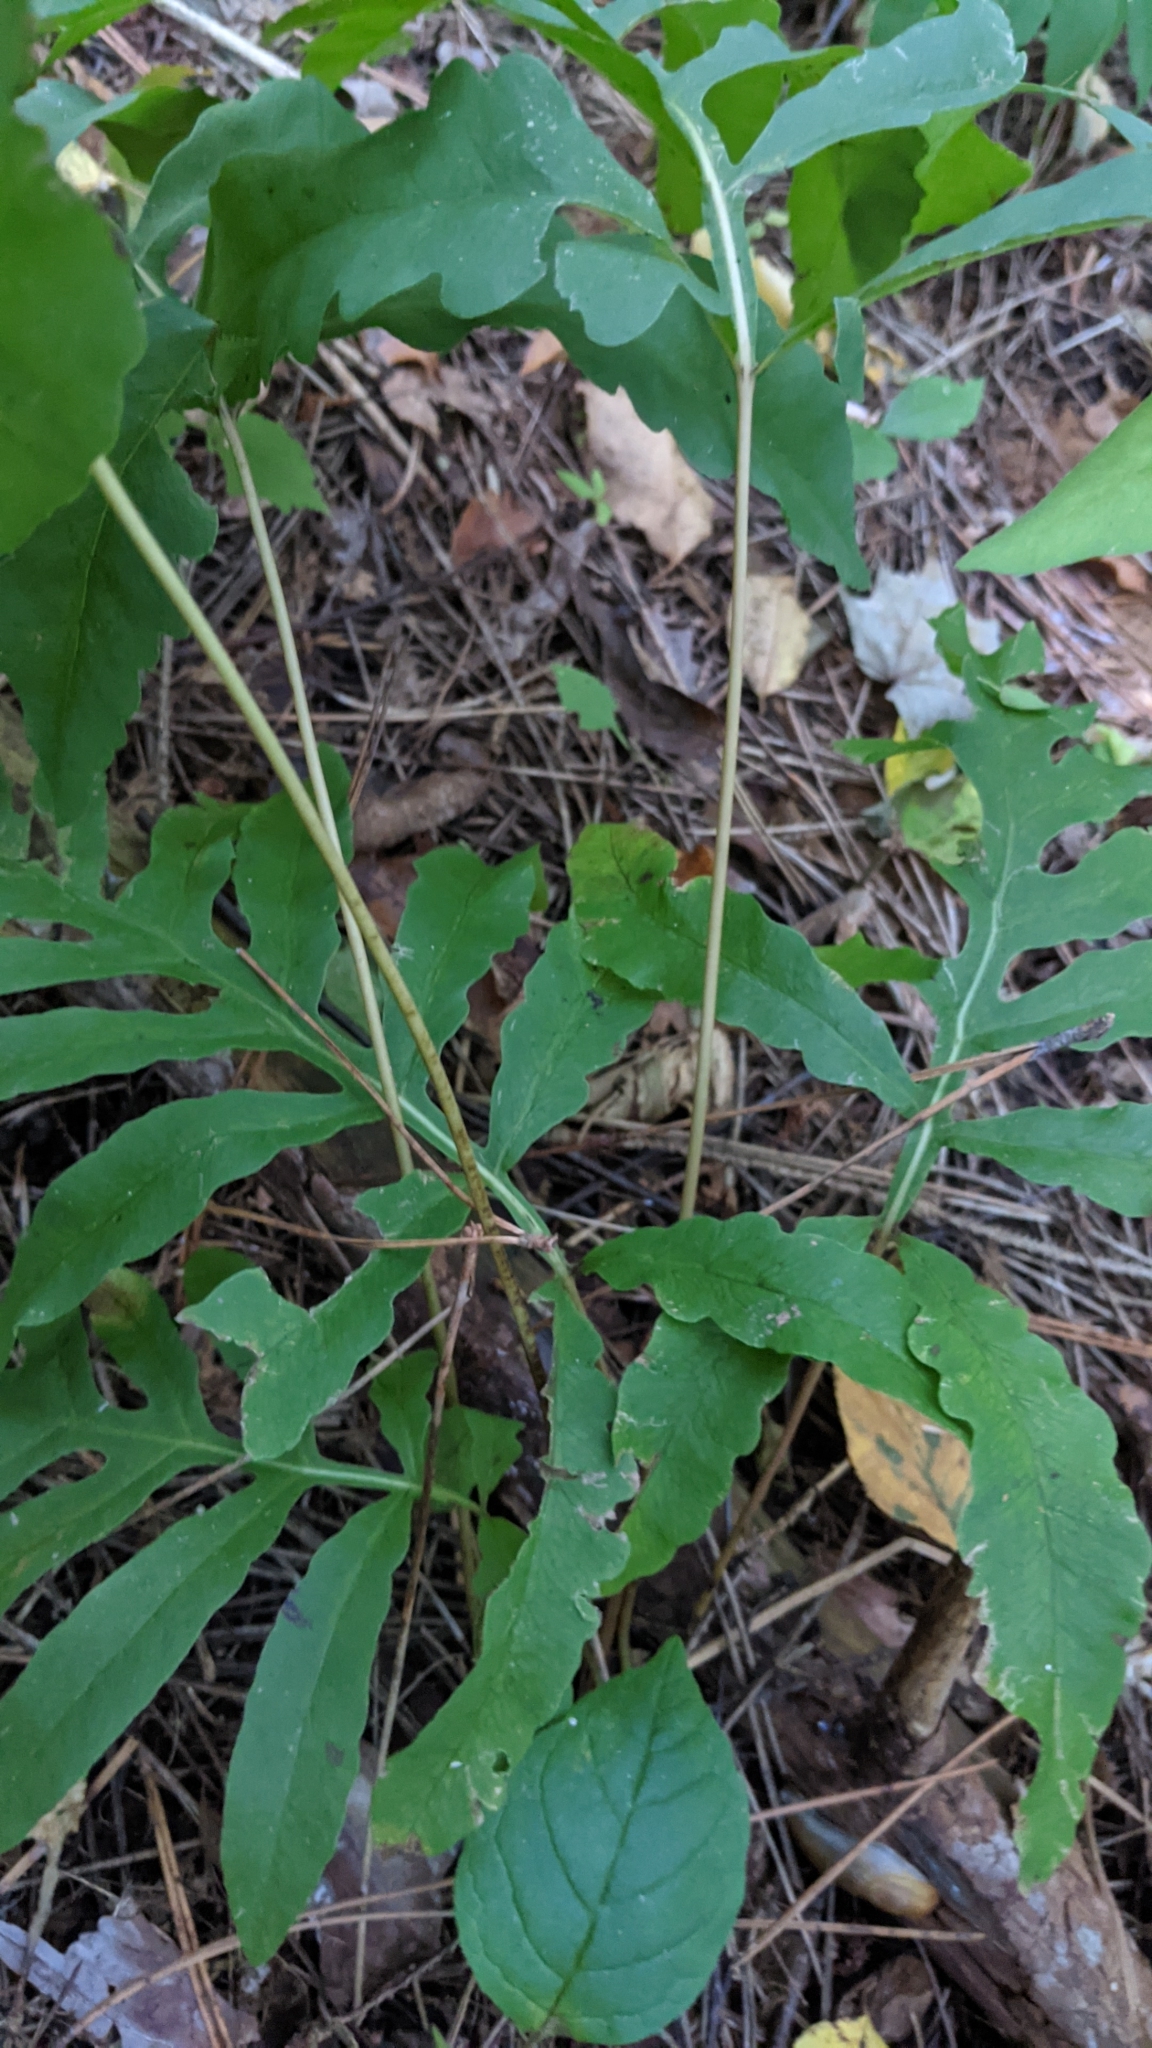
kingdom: Plantae
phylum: Tracheophyta
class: Polypodiopsida
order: Polypodiales
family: Onocleaceae
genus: Onoclea
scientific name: Onoclea sensibilis
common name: Sensitive fern
